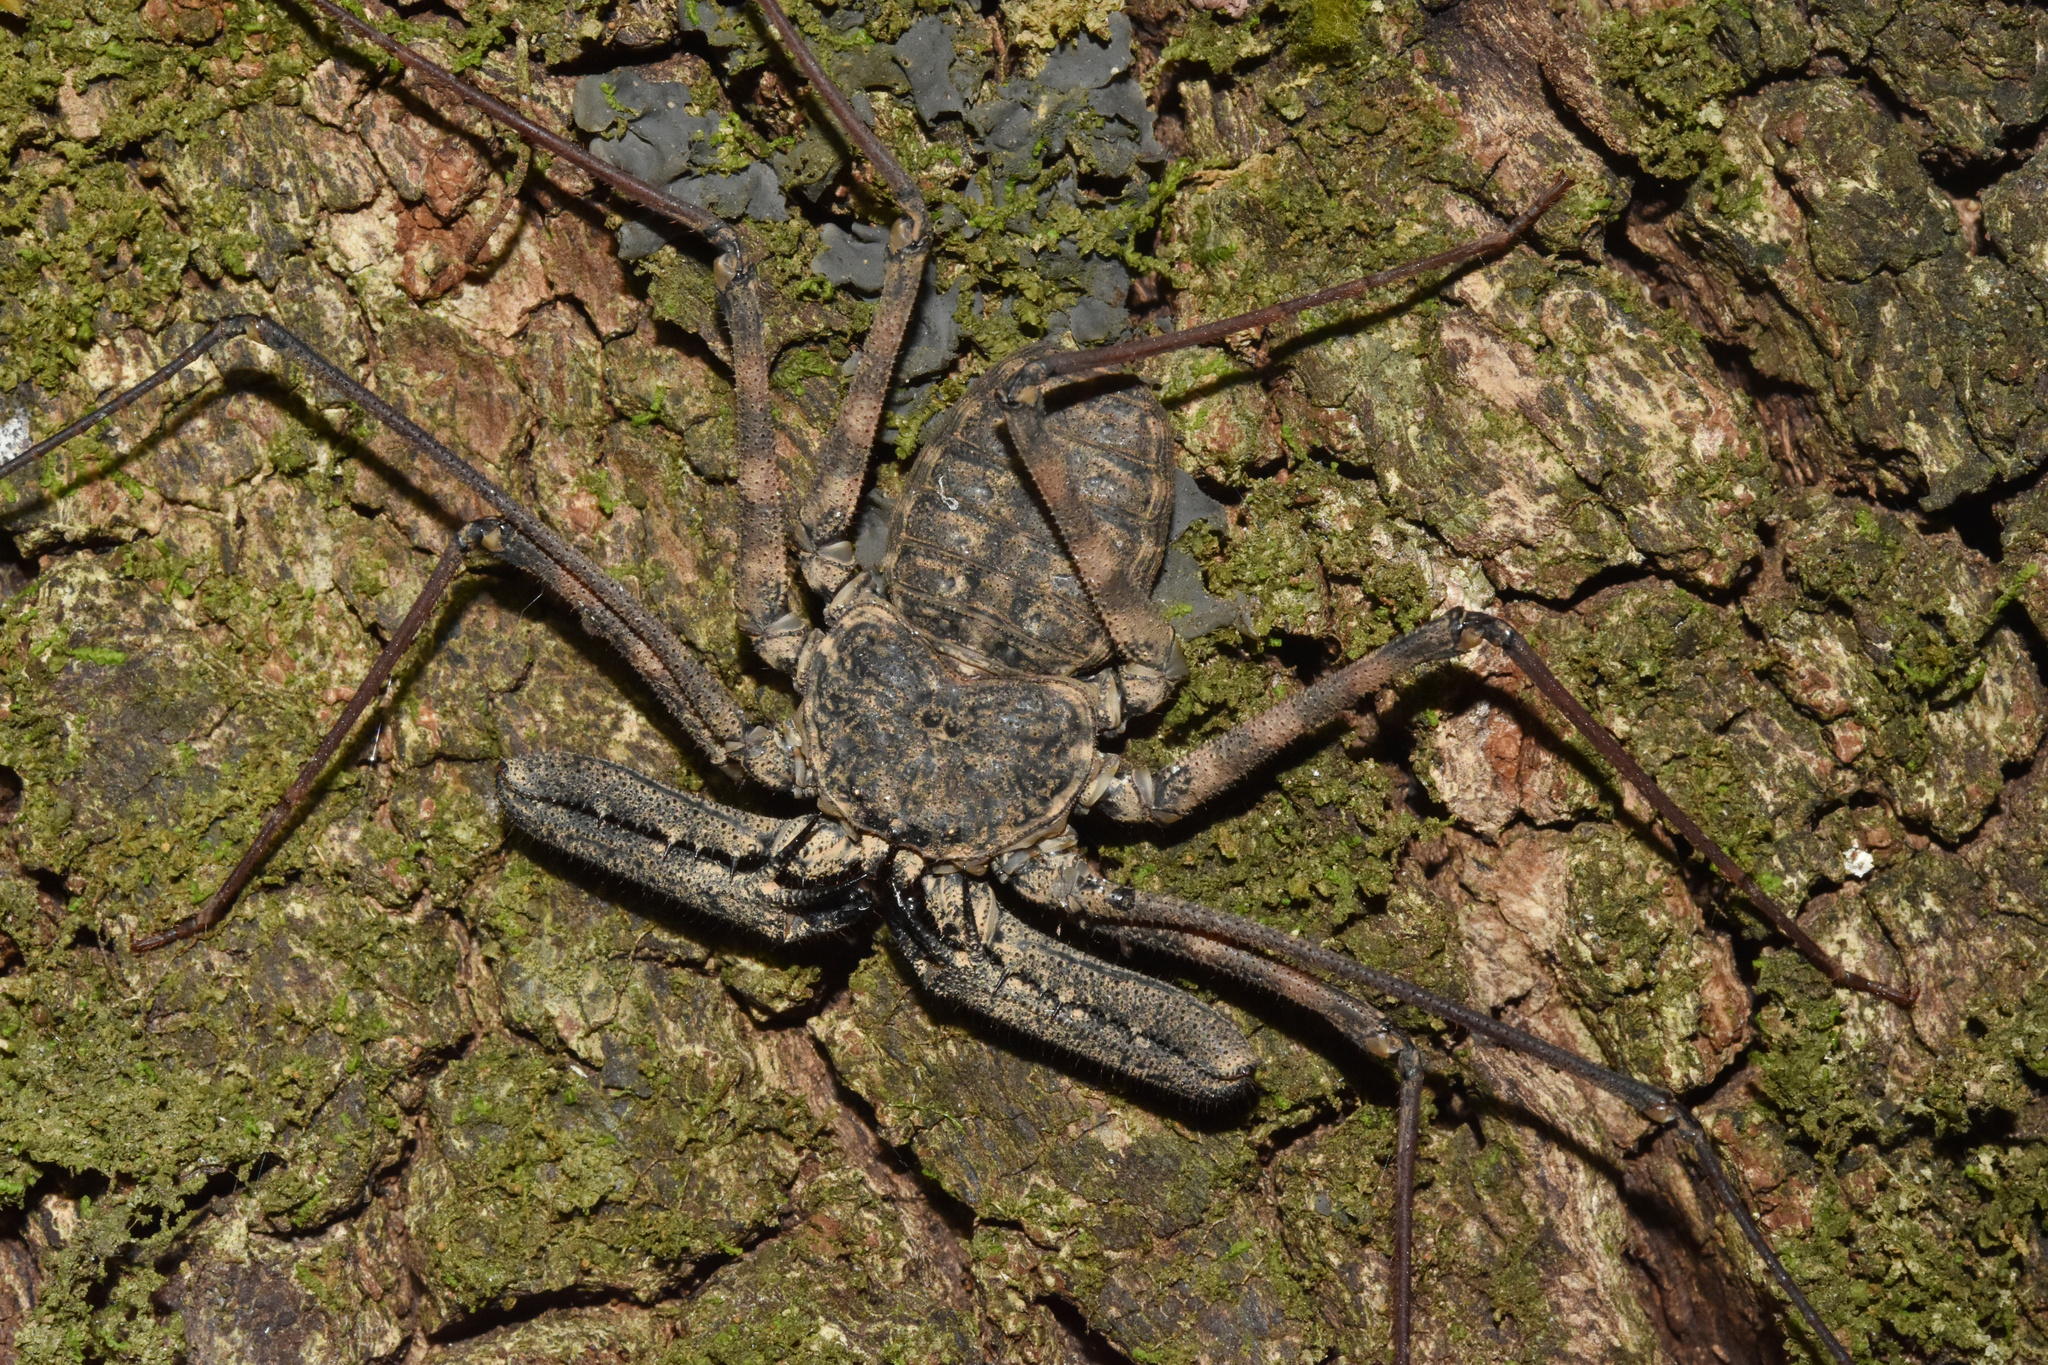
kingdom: Animalia
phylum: Arthropoda
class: Arachnida
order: Amblypygi
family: Phrynichidae
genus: Damon
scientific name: Damon annulatipes
